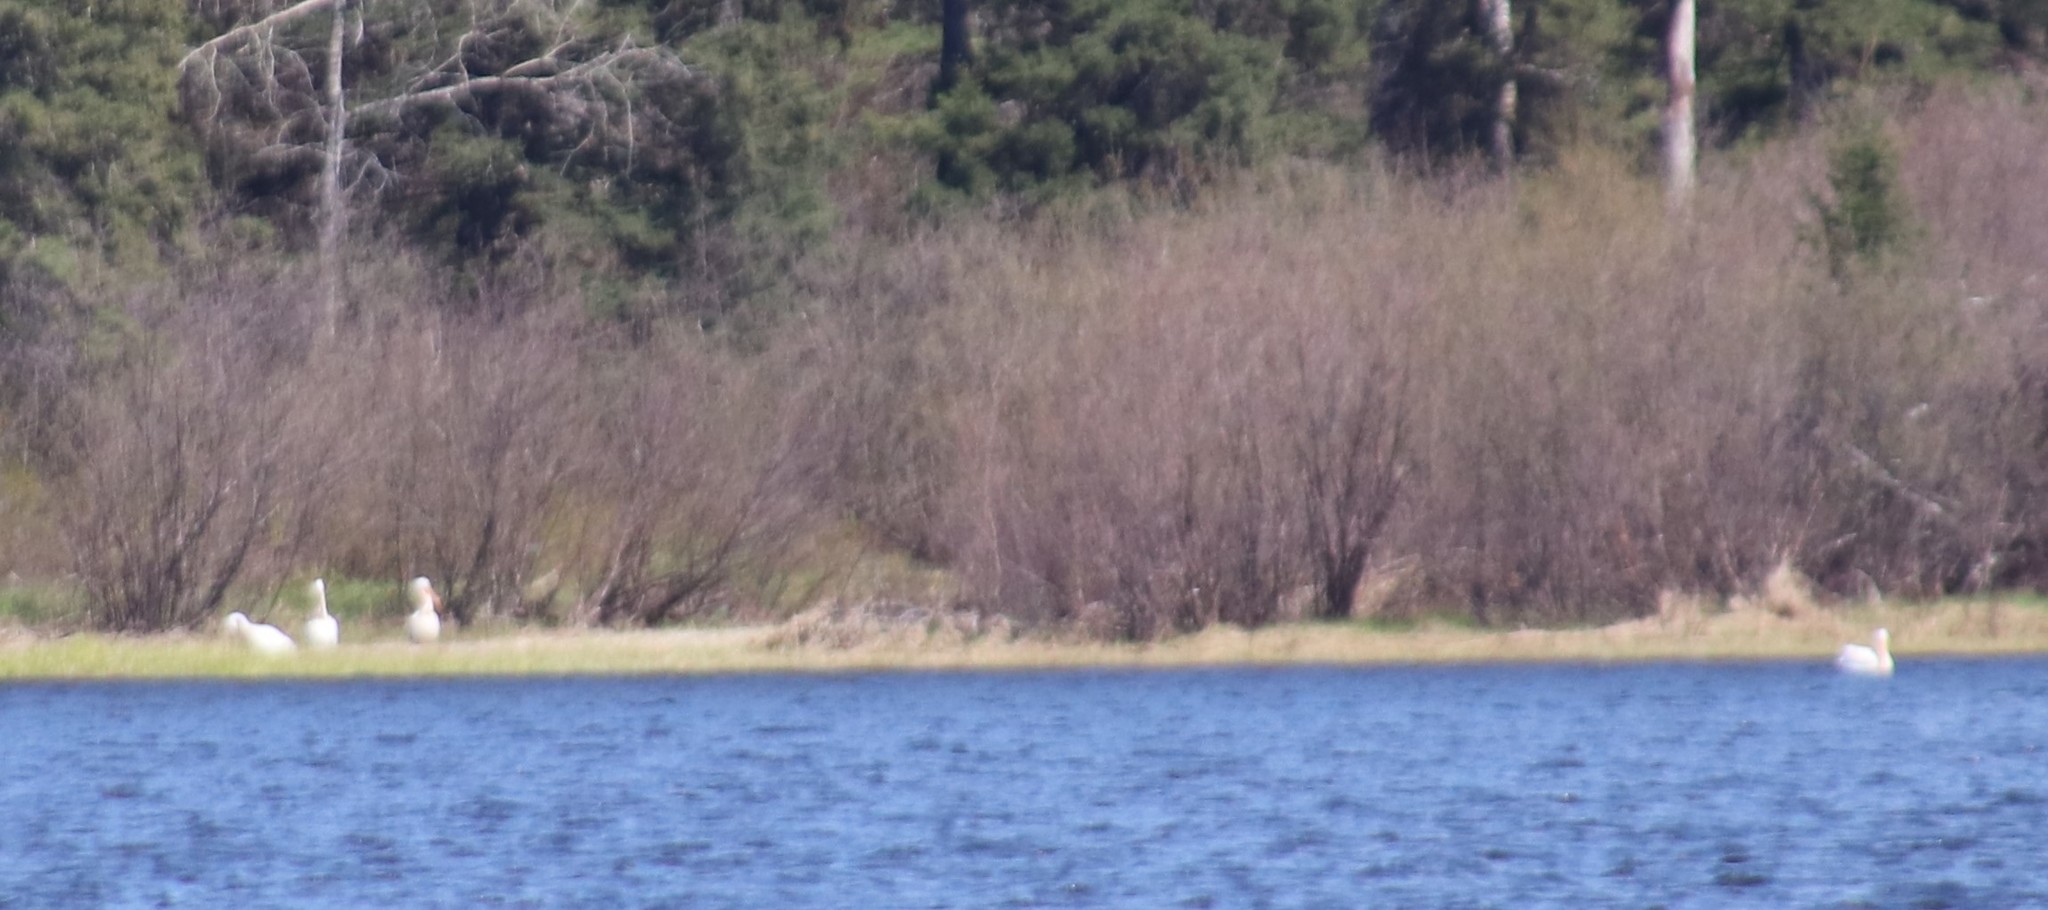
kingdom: Animalia
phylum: Chordata
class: Aves
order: Pelecaniformes
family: Pelecanidae
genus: Pelecanus
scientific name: Pelecanus erythrorhynchos
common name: American white pelican
